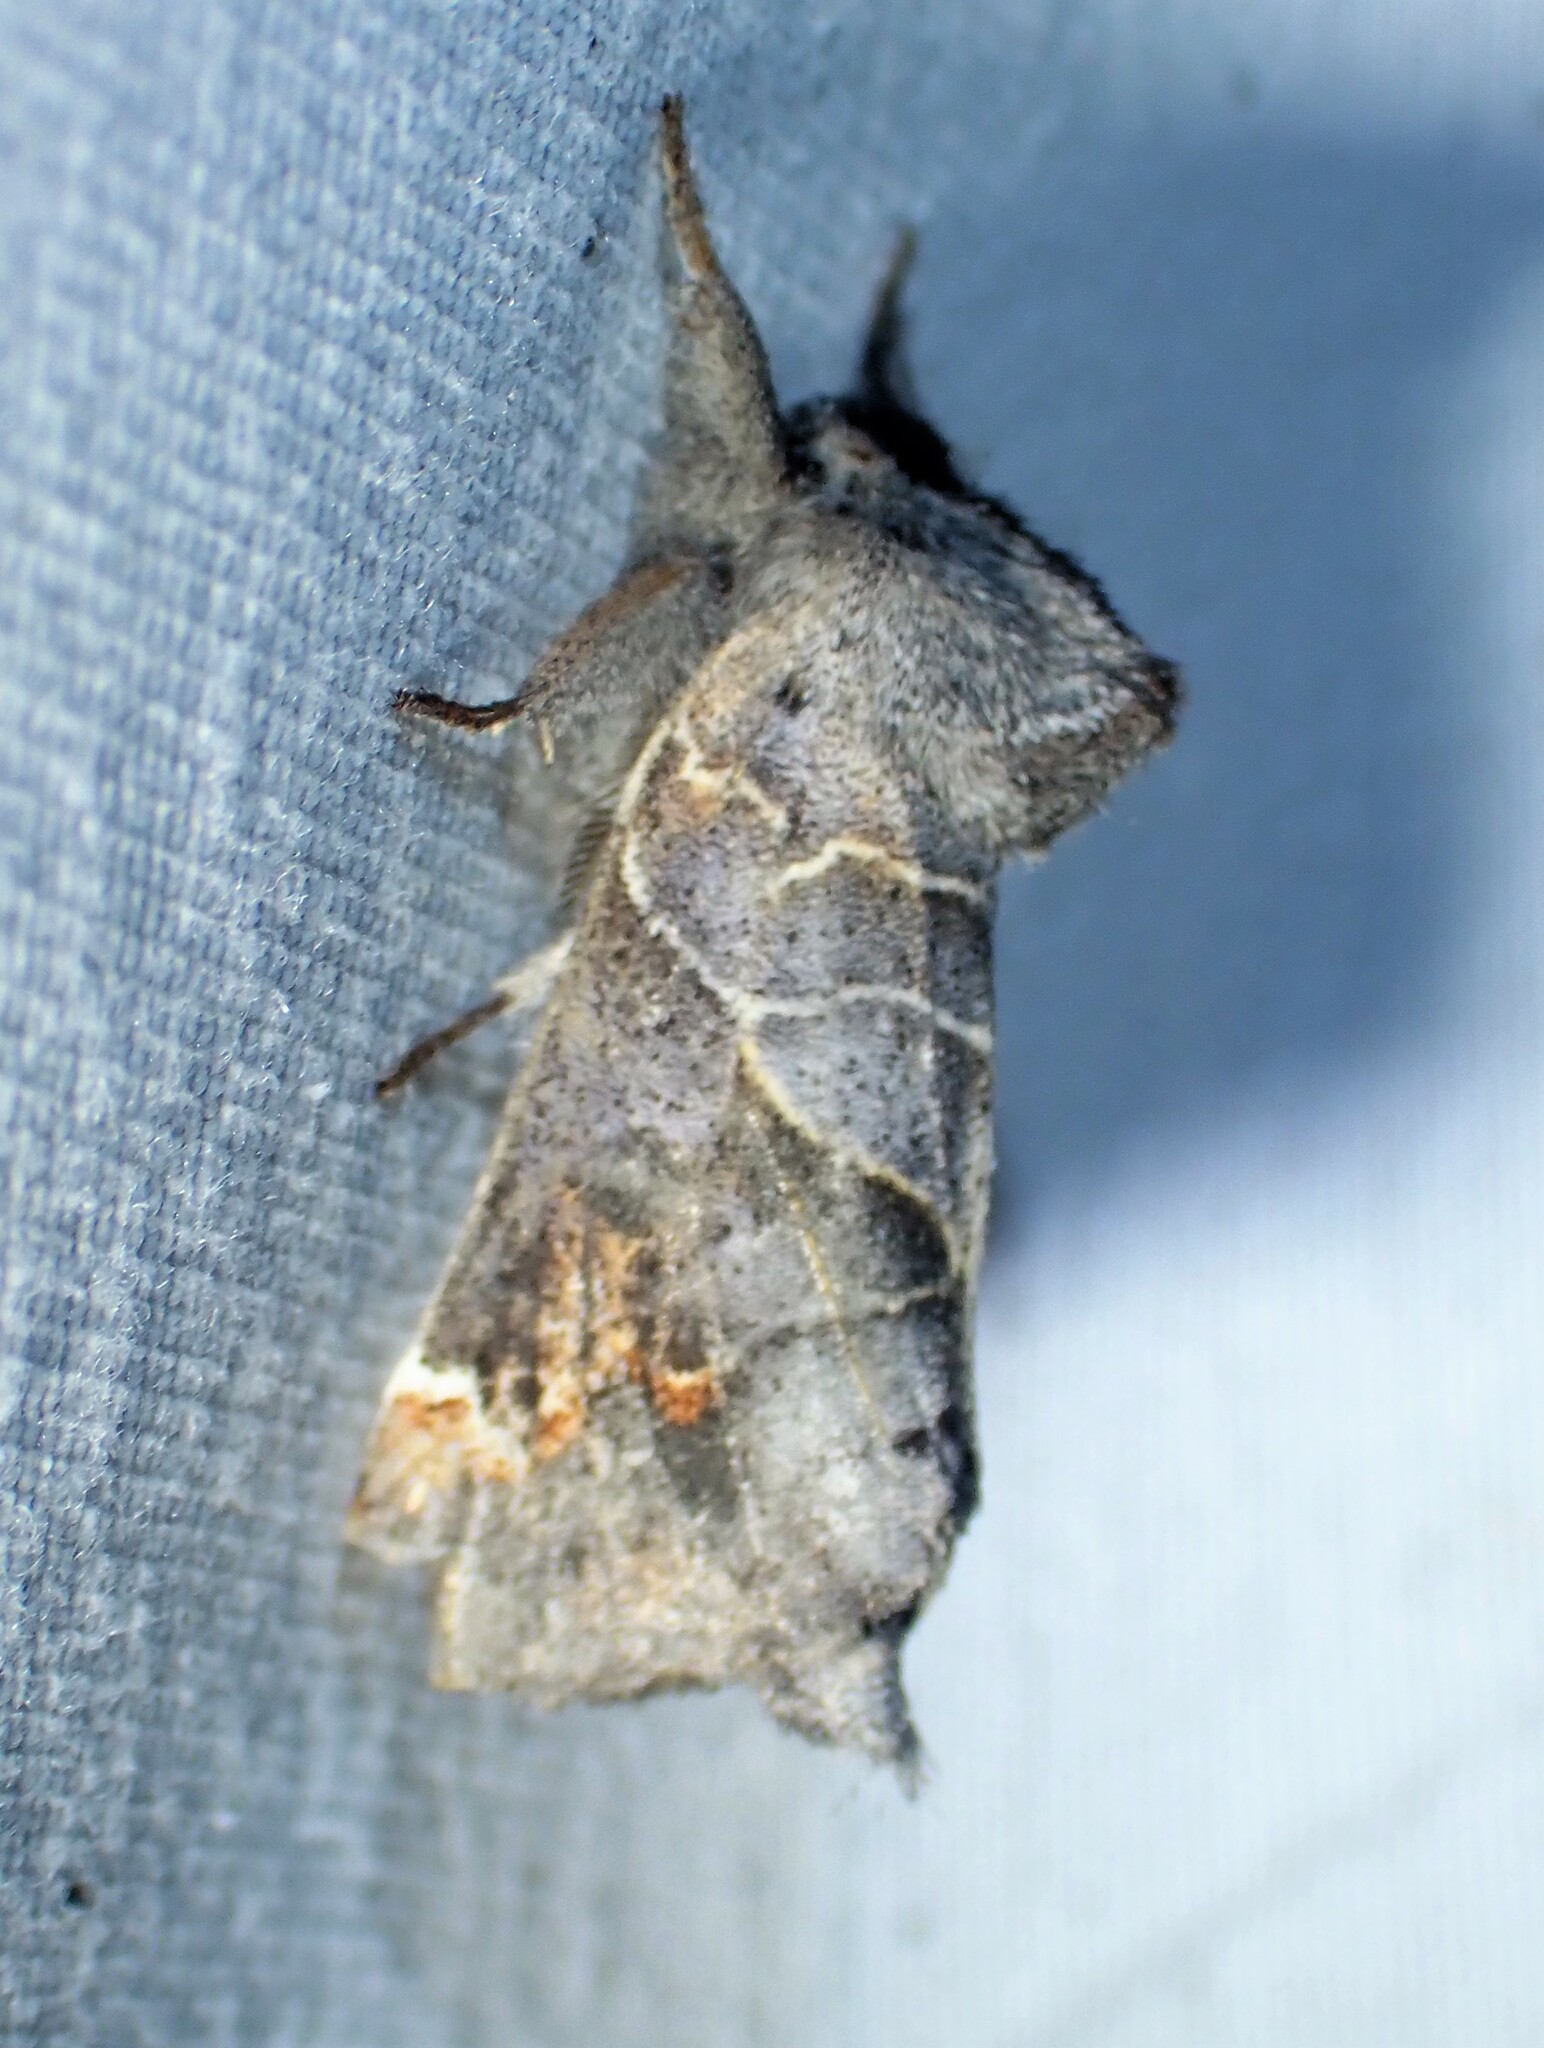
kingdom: Animalia
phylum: Arthropoda
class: Insecta
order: Lepidoptera
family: Notodontidae
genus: Clostera
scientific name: Clostera apicalis
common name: Apical prominent
